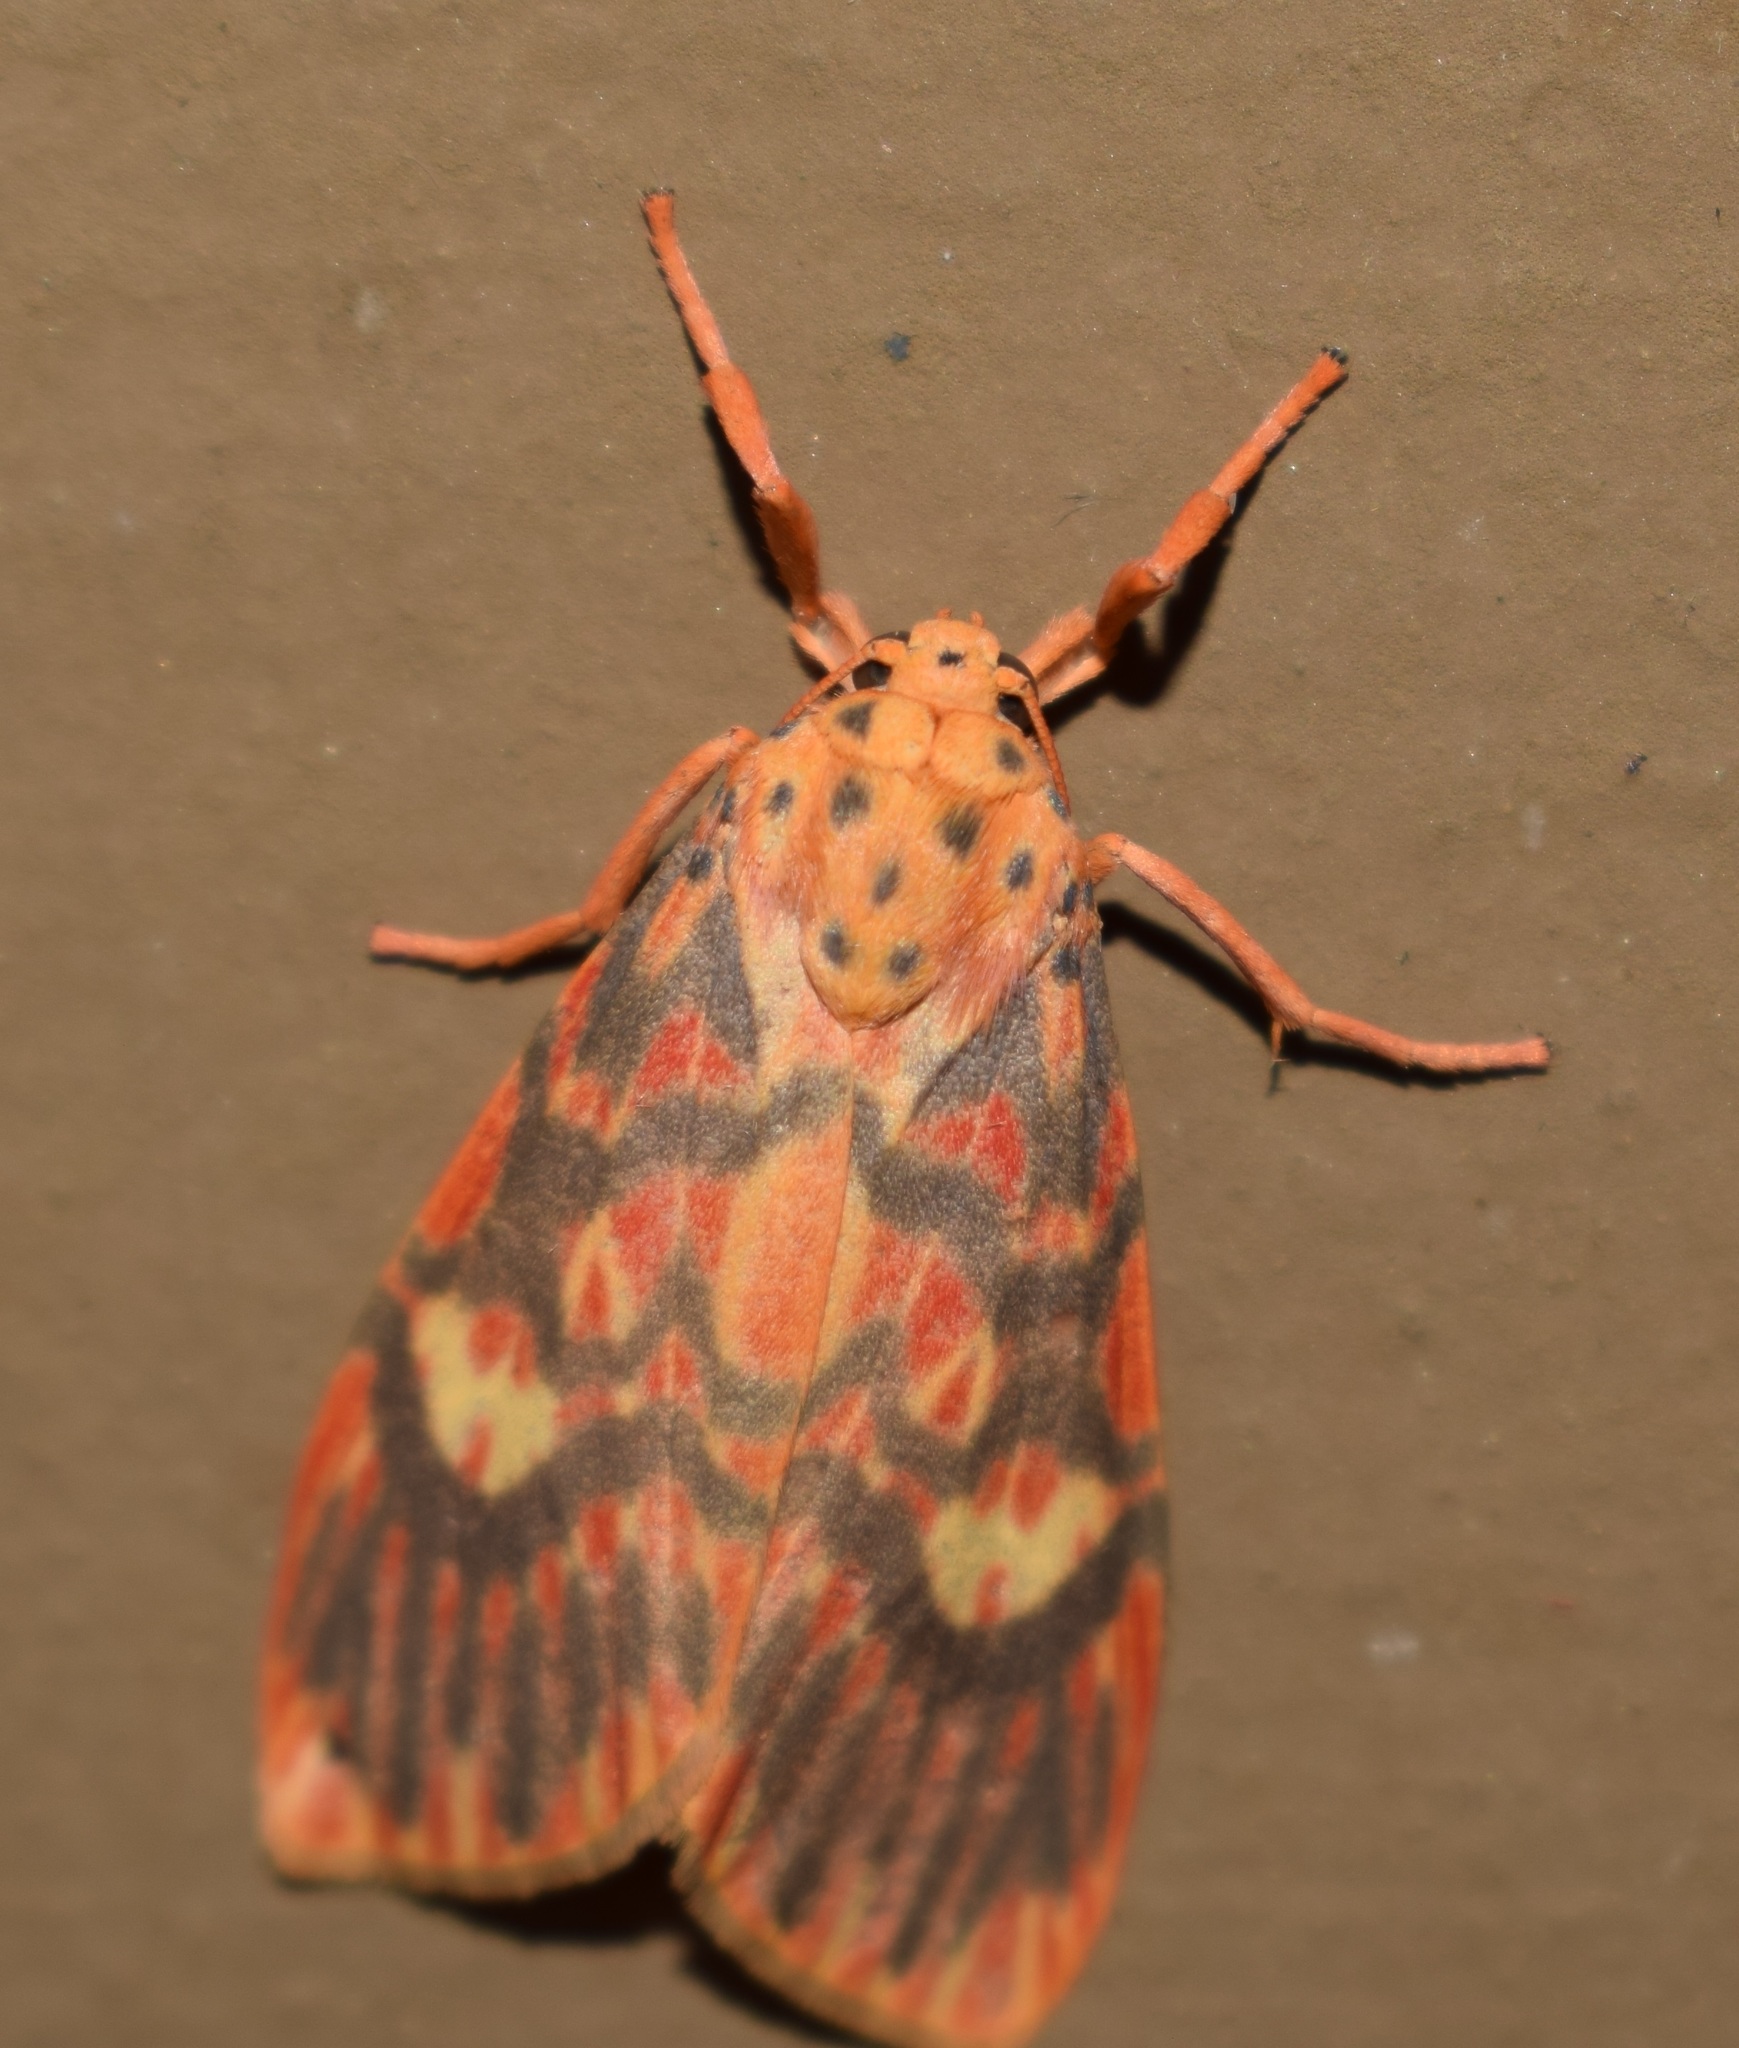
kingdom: Animalia
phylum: Arthropoda
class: Insecta
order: Lepidoptera
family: Erebidae
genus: Ammatho
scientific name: Ammatho cuneonotatus
